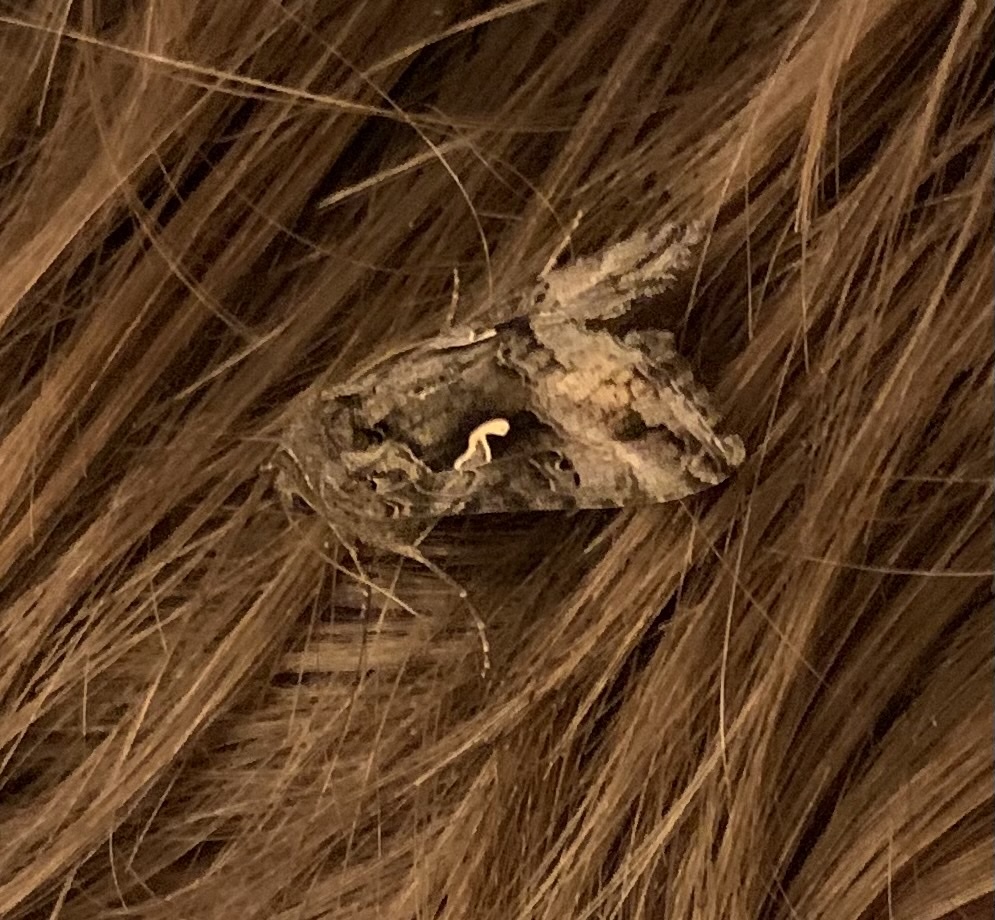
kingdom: Animalia
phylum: Arthropoda
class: Insecta
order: Lepidoptera
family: Noctuidae
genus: Autographa
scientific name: Autographa gamma
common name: Silver y
